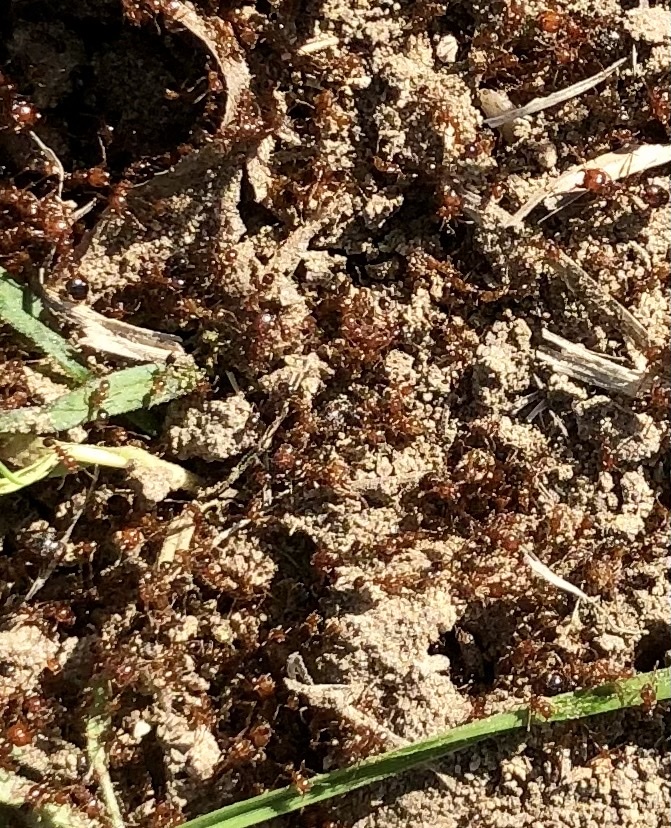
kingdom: Animalia
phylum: Arthropoda
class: Insecta
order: Hymenoptera
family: Formicidae
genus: Solenopsis
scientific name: Solenopsis invicta
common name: Red imported fire ant
